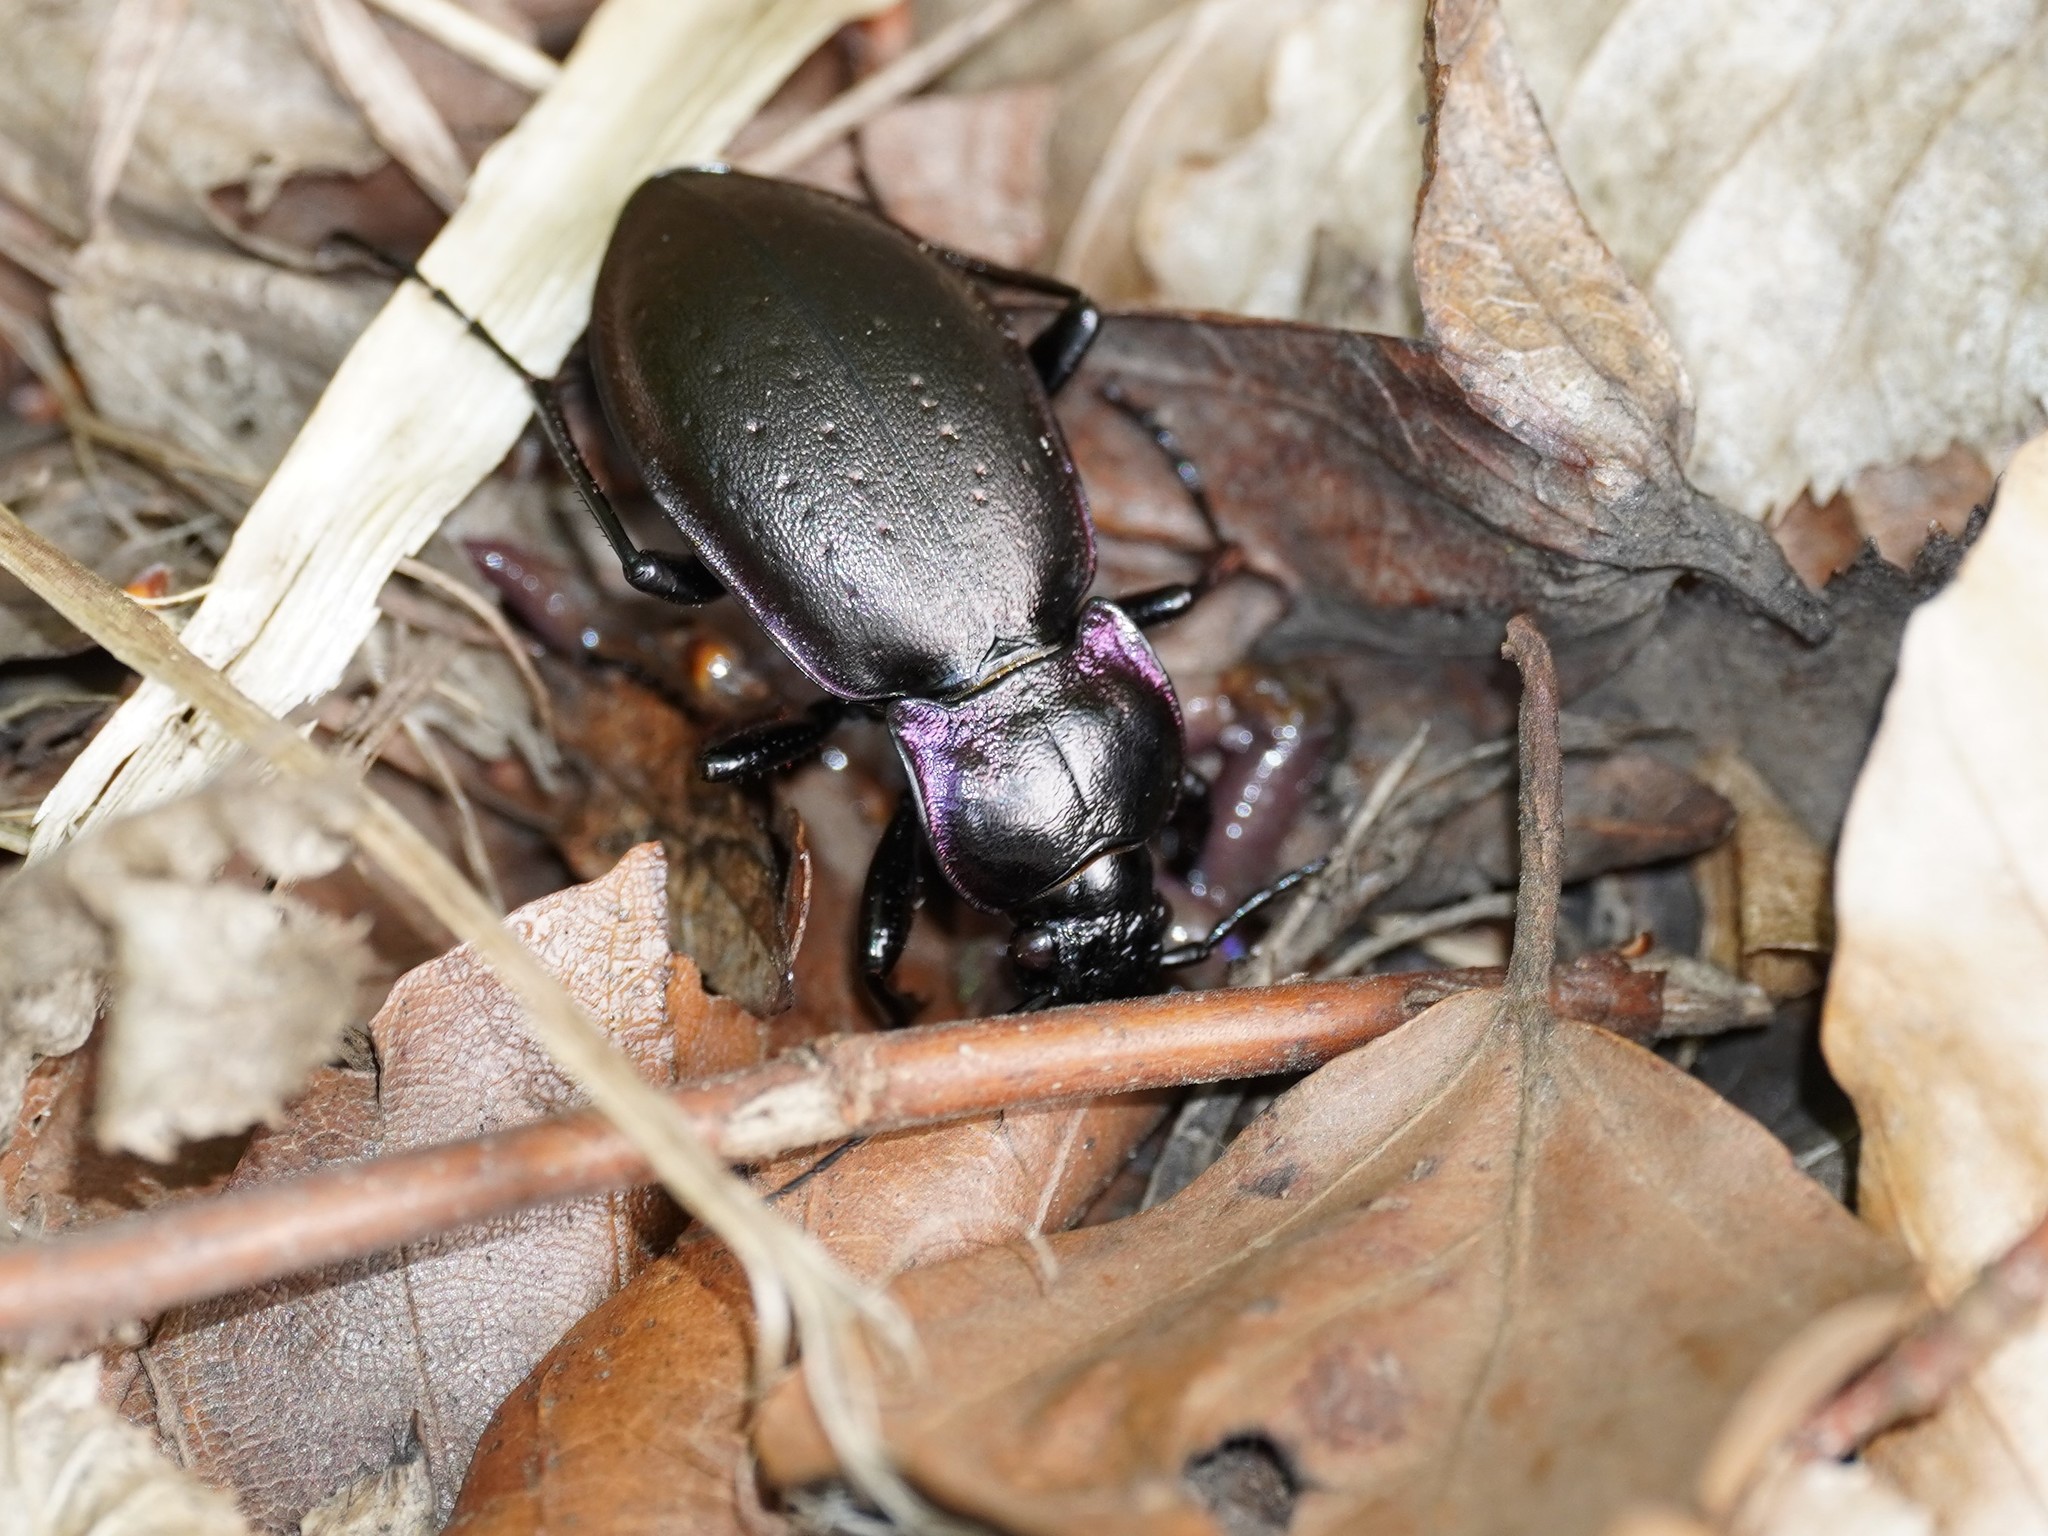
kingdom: Animalia
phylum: Arthropoda
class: Insecta
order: Coleoptera
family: Carabidae
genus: Carabus
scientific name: Carabus nemoralis
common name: European ground beetle
